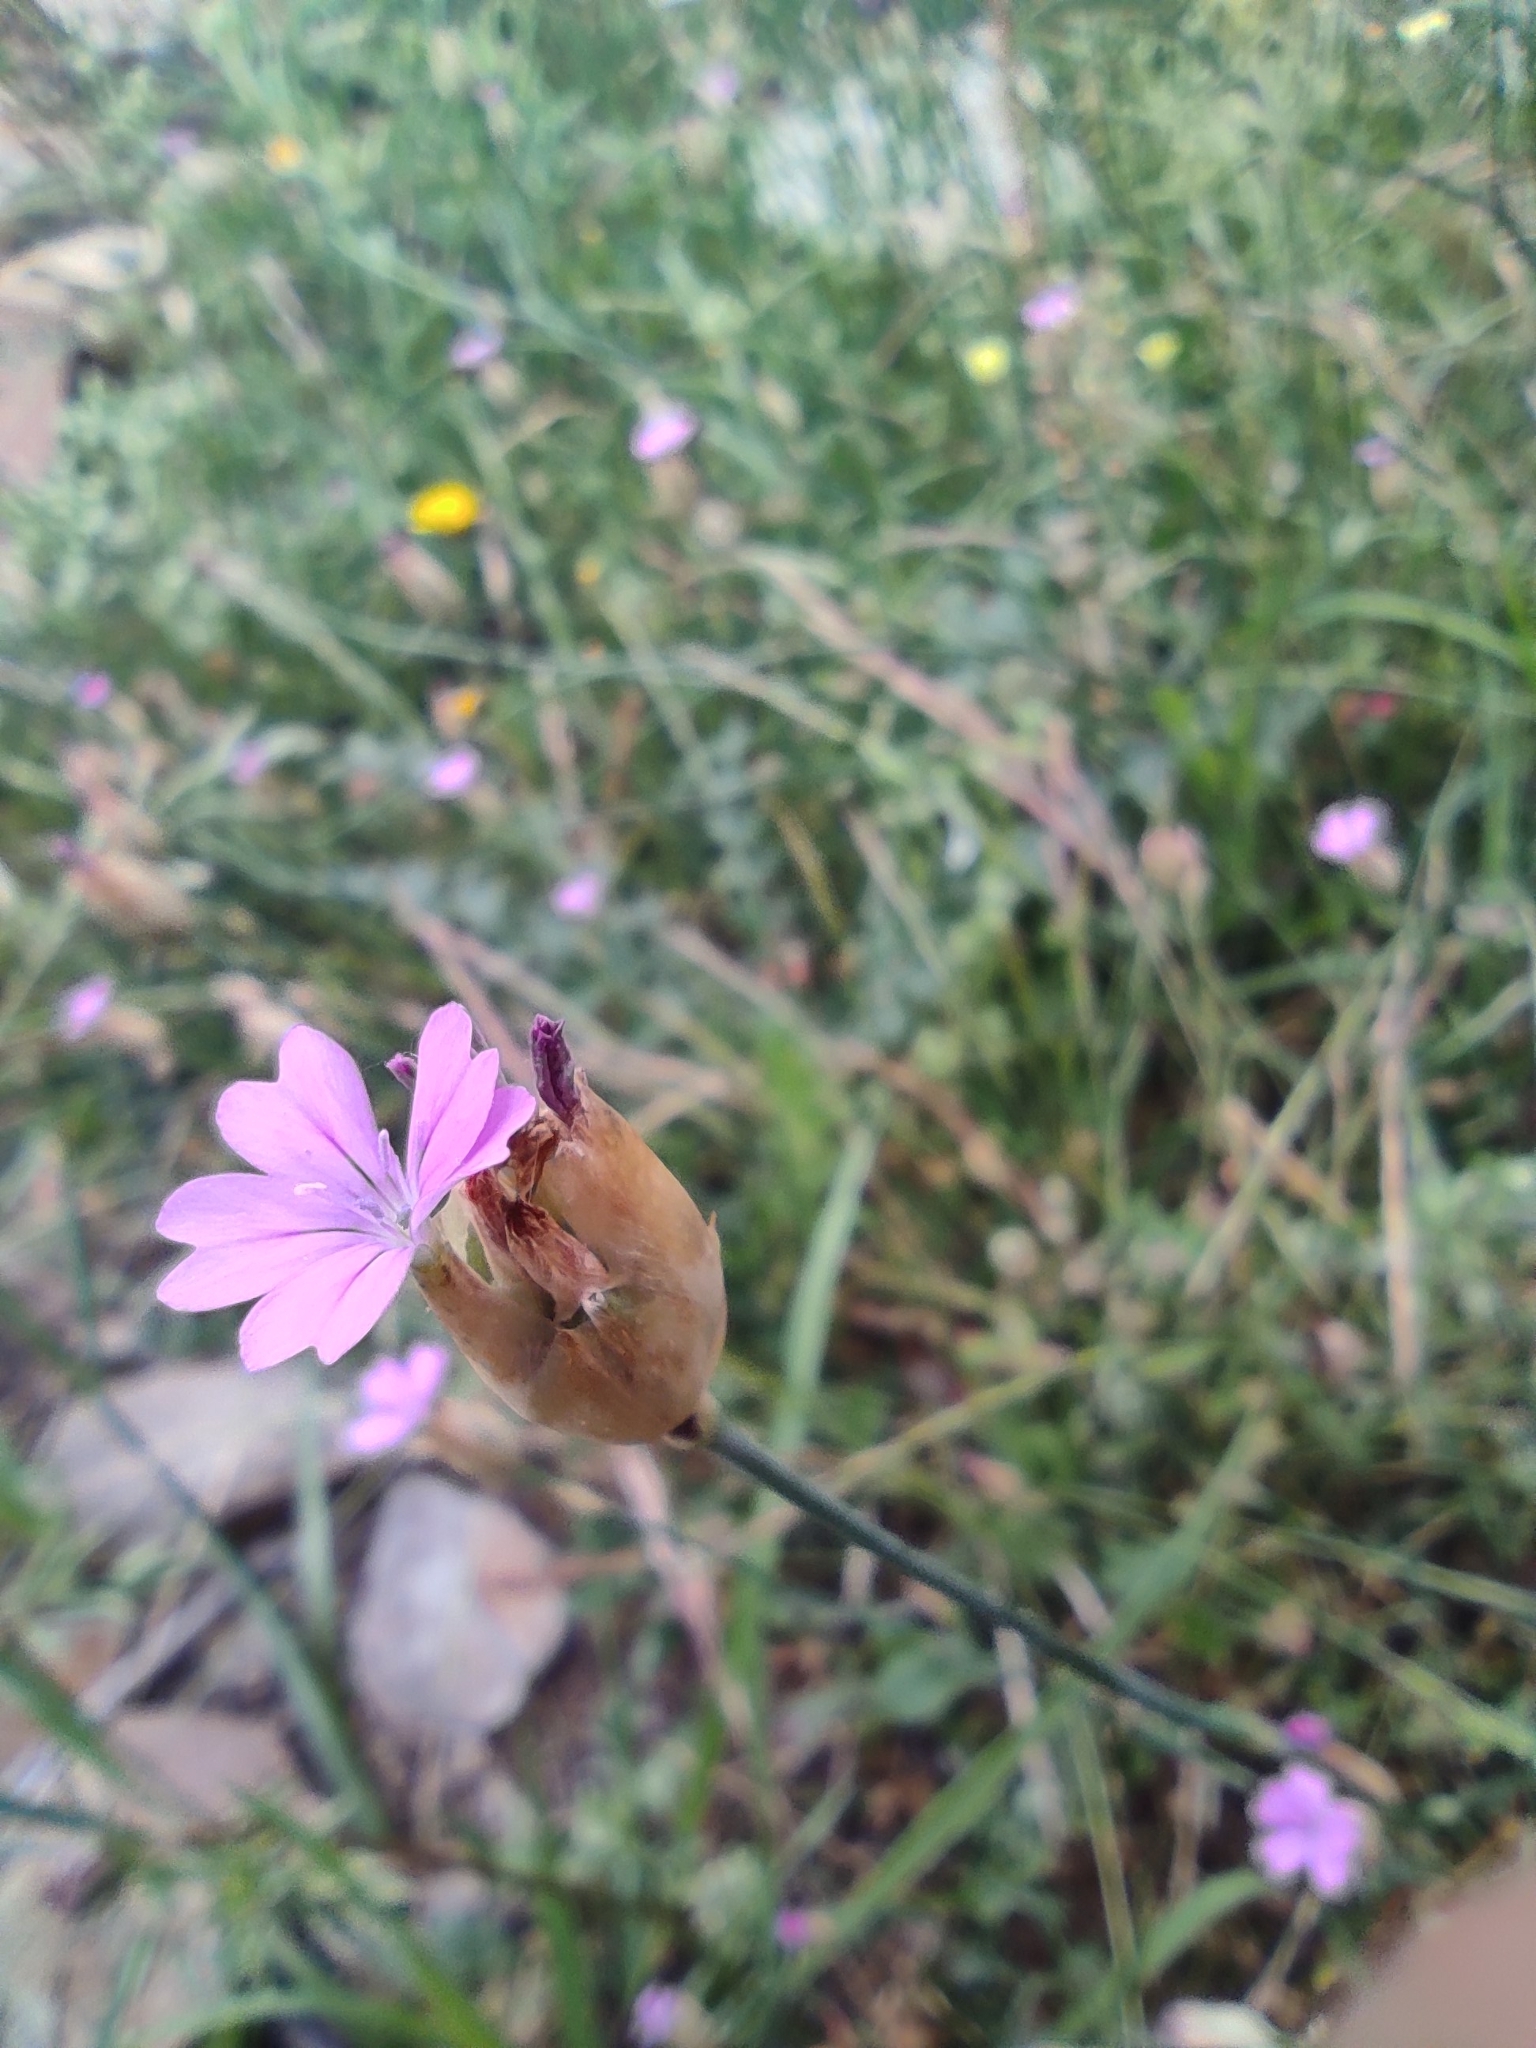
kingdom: Plantae
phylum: Tracheophyta
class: Magnoliopsida
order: Caryophyllales
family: Caryophyllaceae
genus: Petrorhagia
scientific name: Petrorhagia nanteuilii
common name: Proliferous pink
